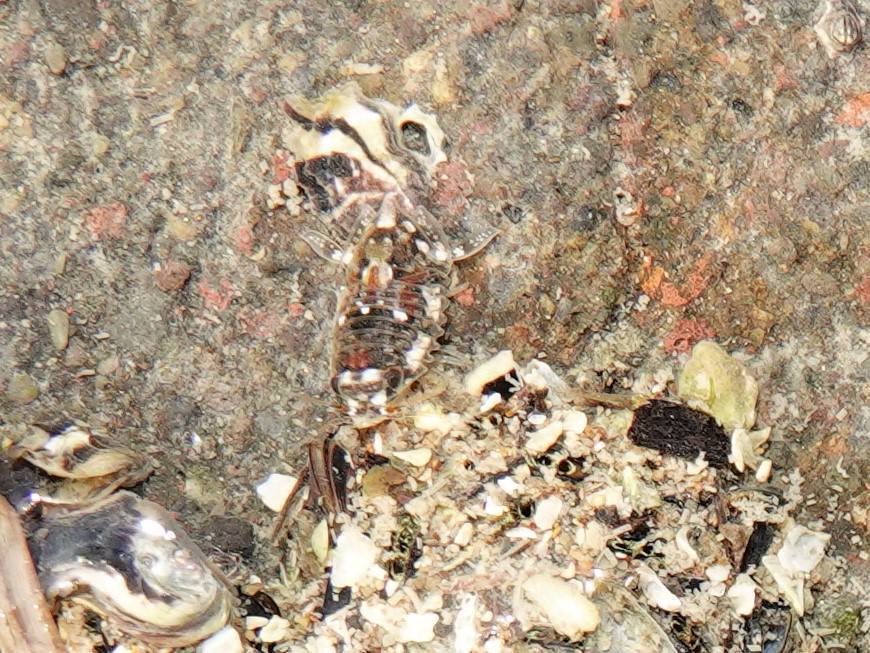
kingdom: Animalia
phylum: Arthropoda
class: Malacostraca
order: Isopoda
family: Sphaeromatidae
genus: Isocladus
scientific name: Isocladus armatus
